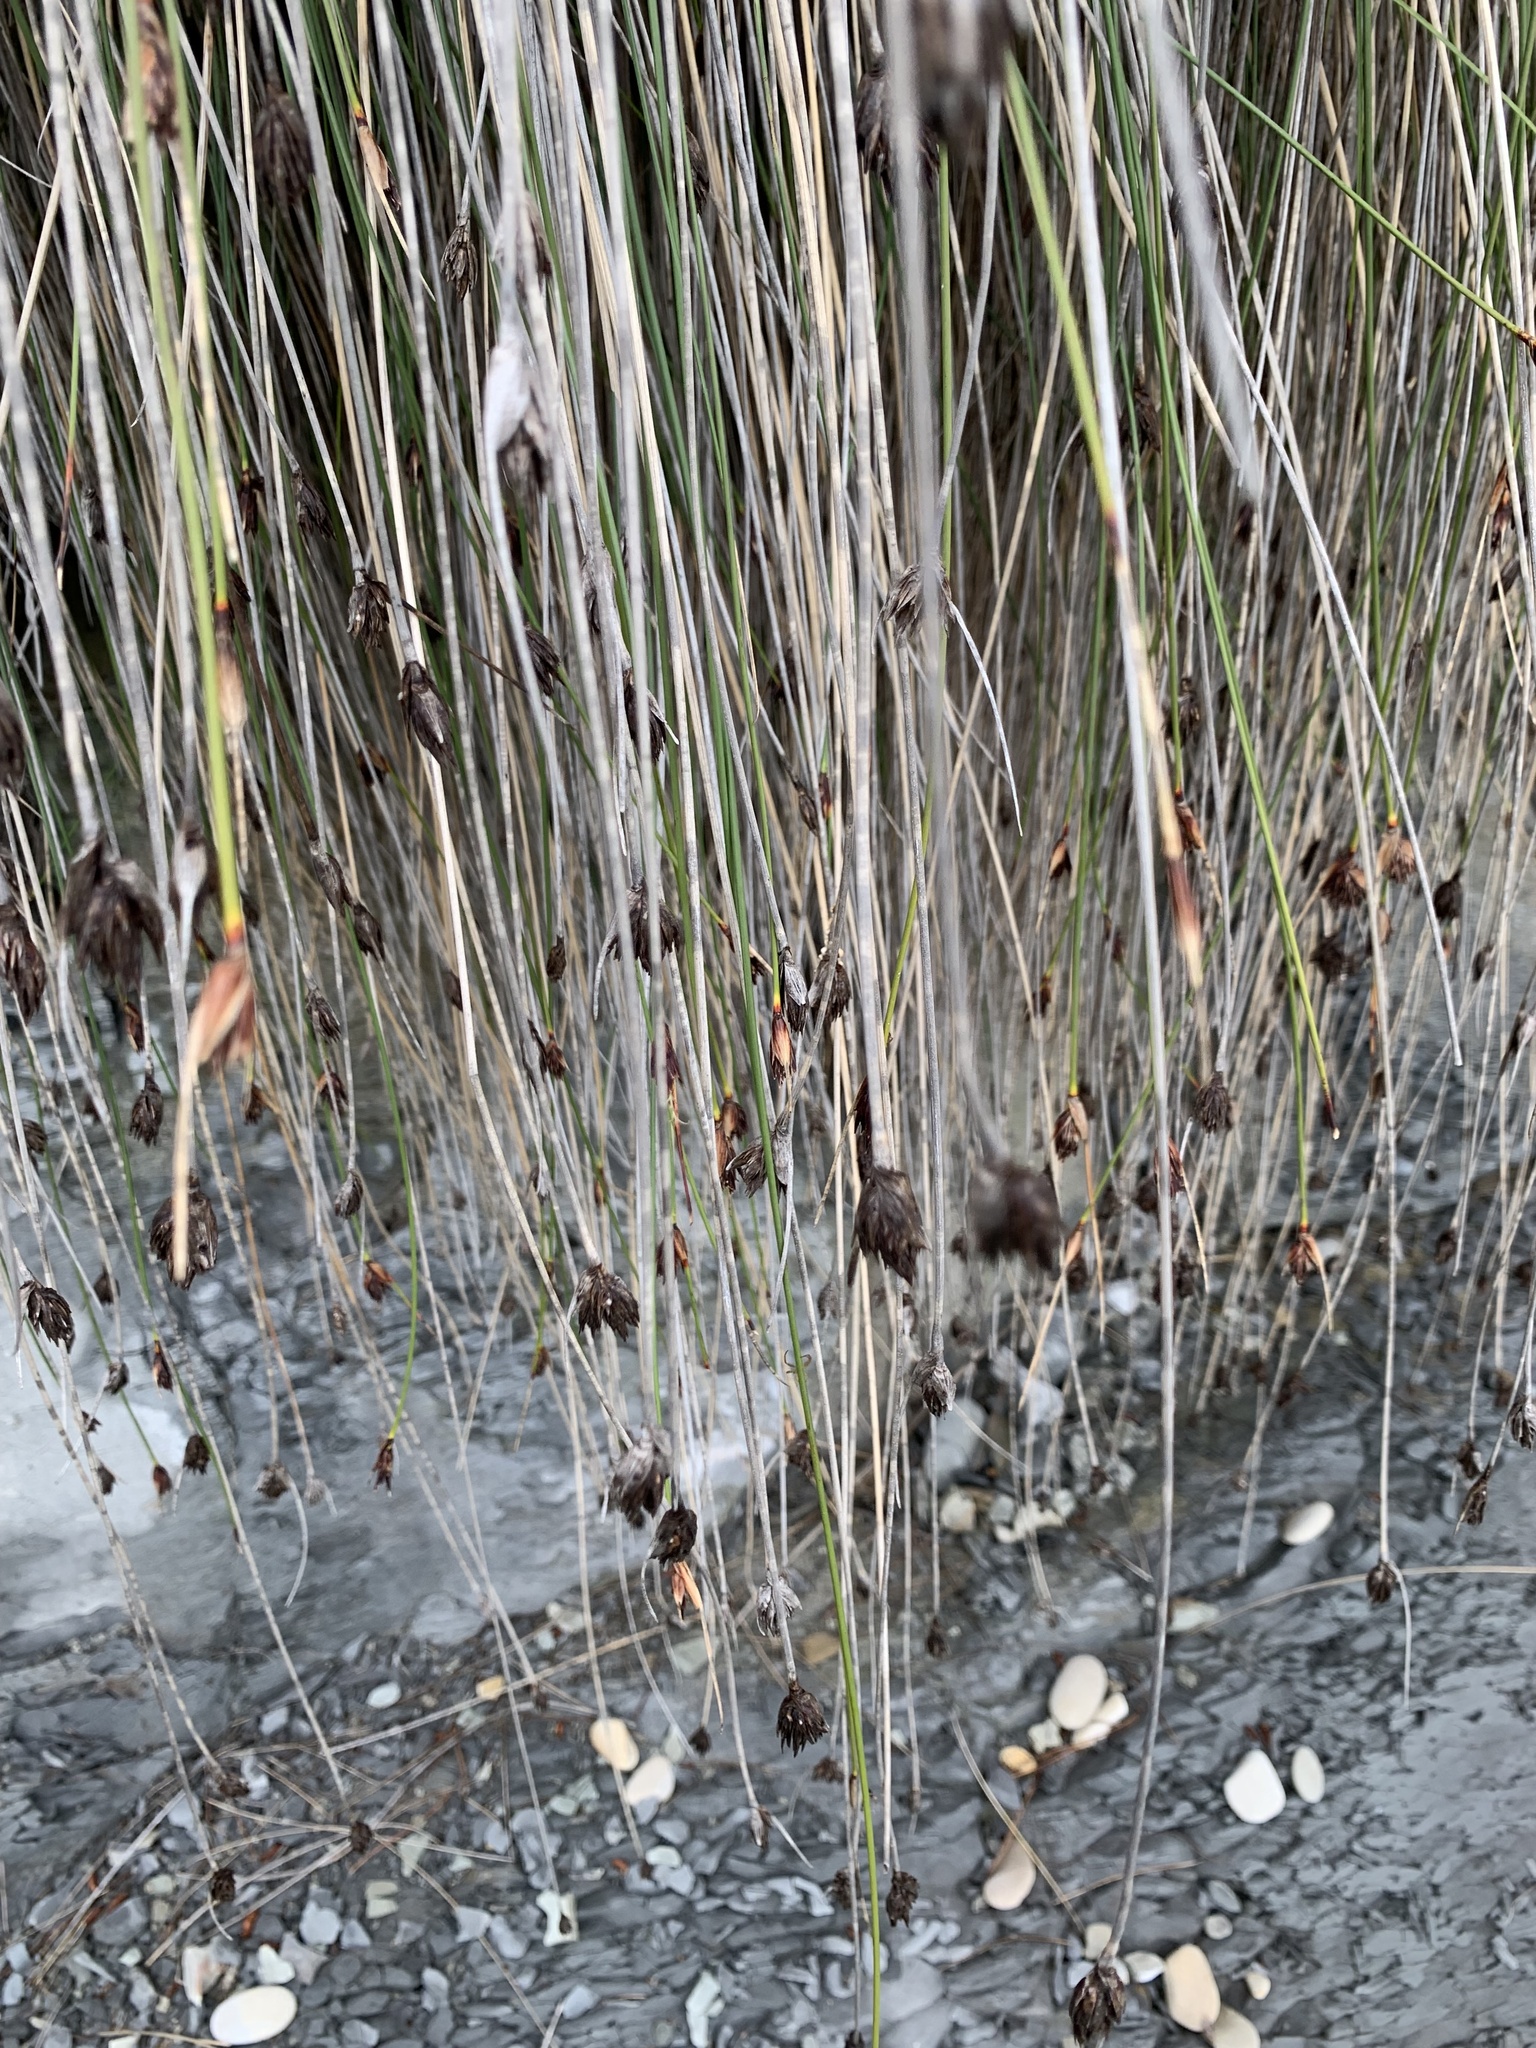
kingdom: Plantae
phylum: Tracheophyta
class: Liliopsida
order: Poales
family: Cyperaceae
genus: Schoenus
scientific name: Schoenus nigricans
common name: Black bog-rush
